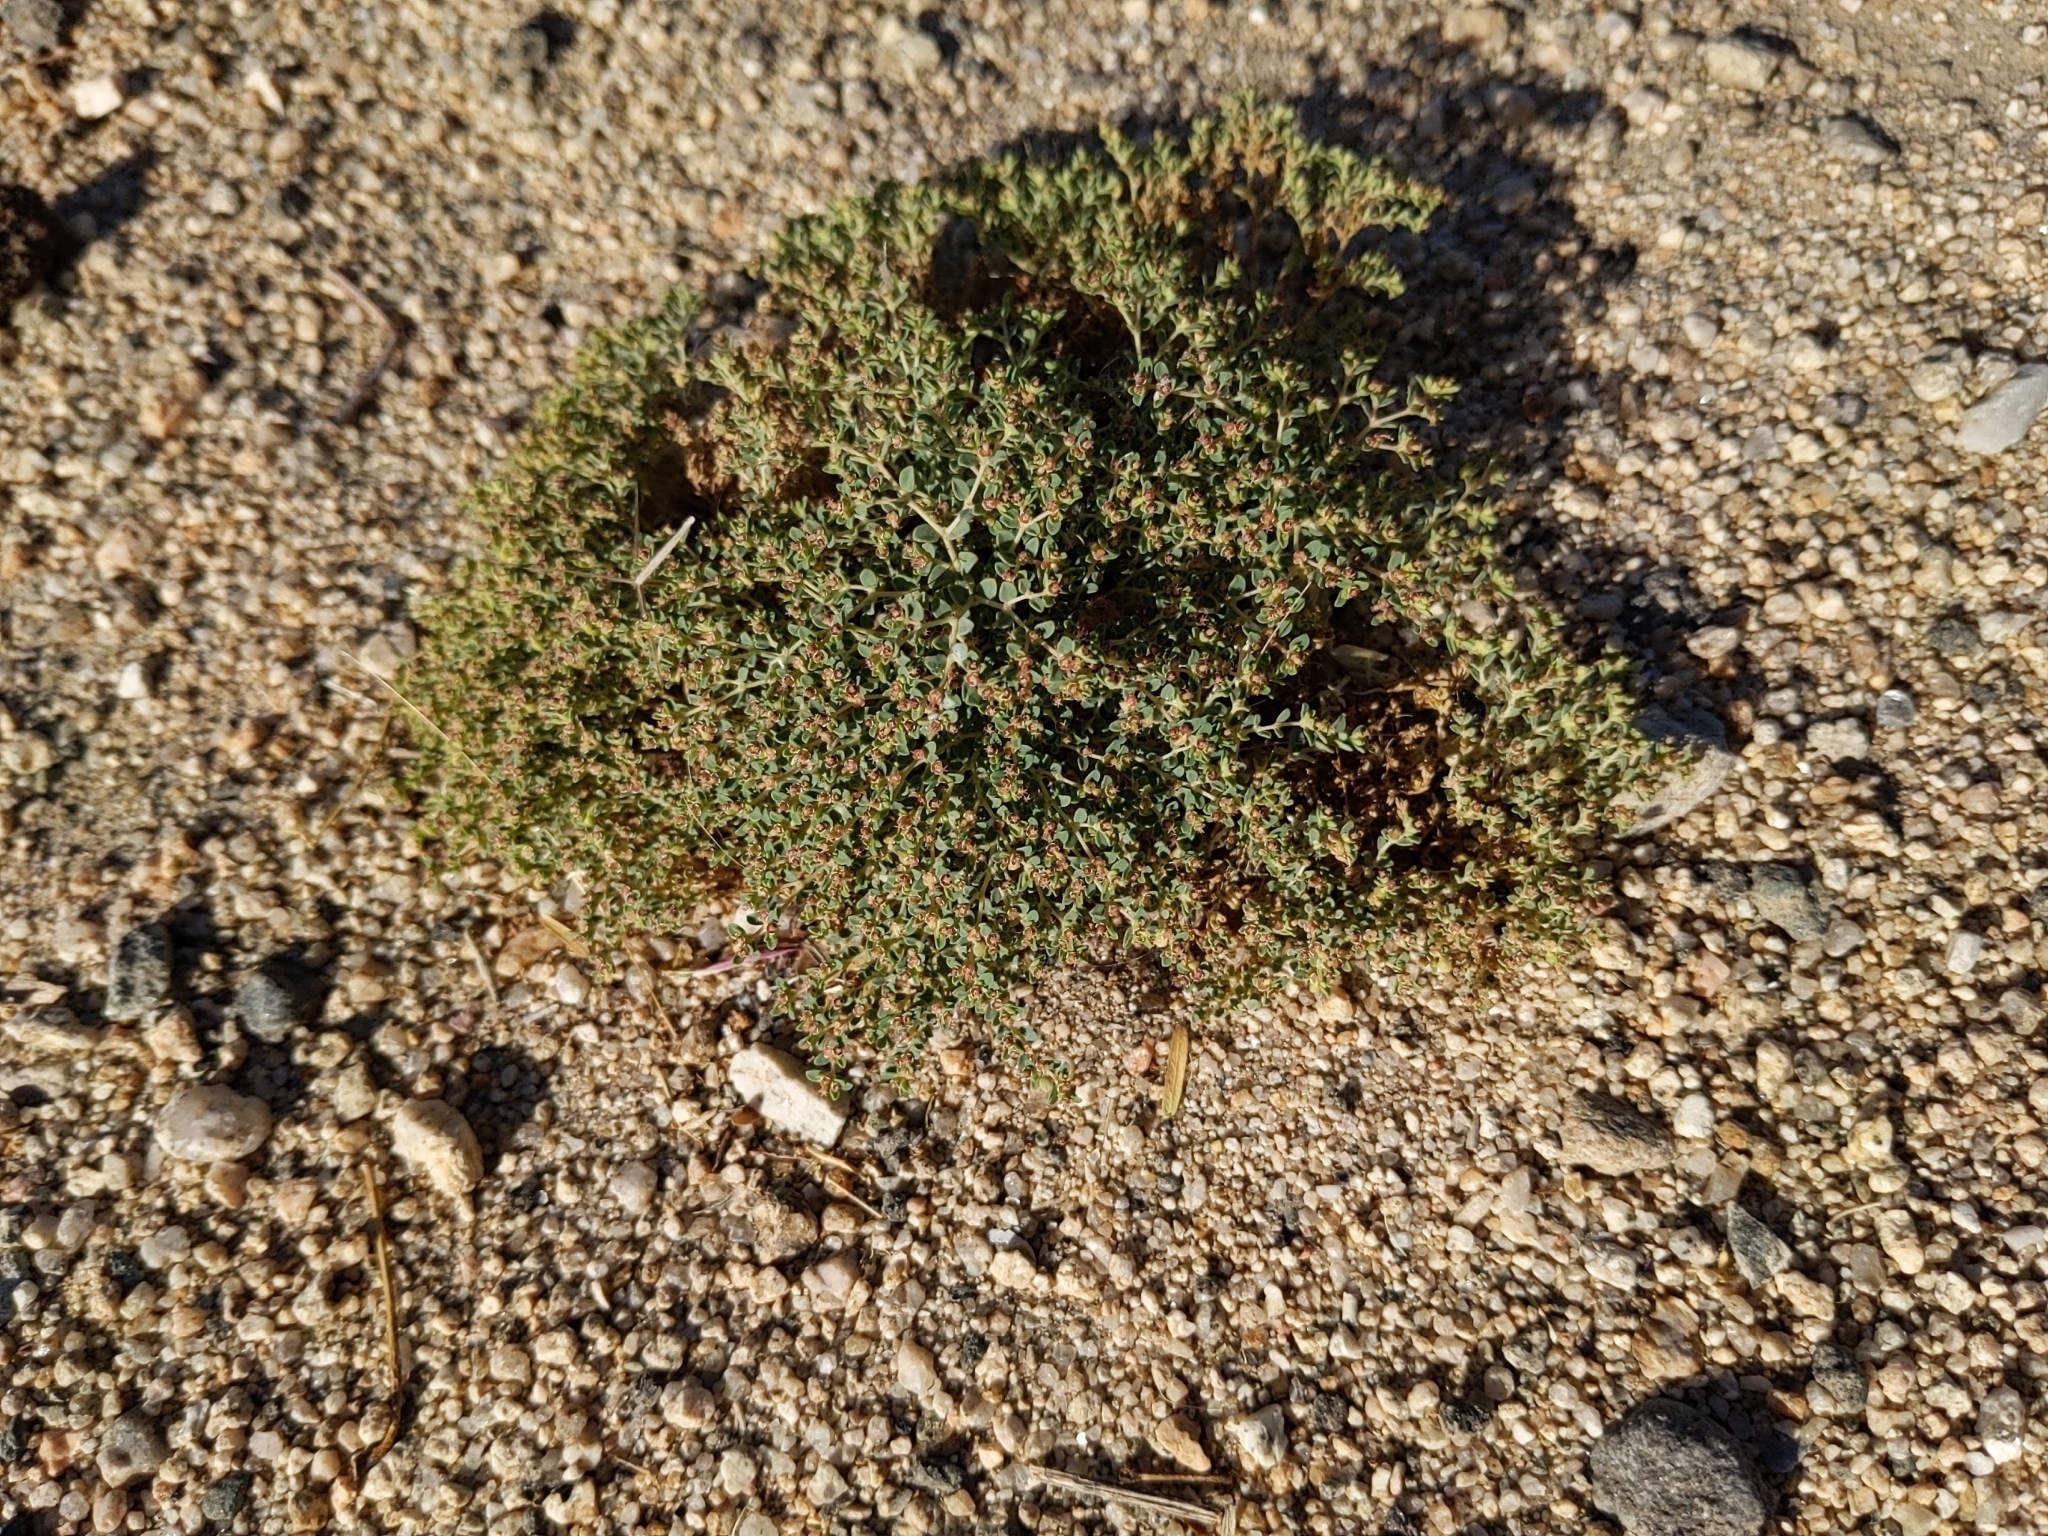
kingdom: Plantae
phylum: Tracheophyta
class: Magnoliopsida
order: Malpighiales
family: Euphorbiaceae
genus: Euphorbia
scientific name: Euphorbia polycarpa
